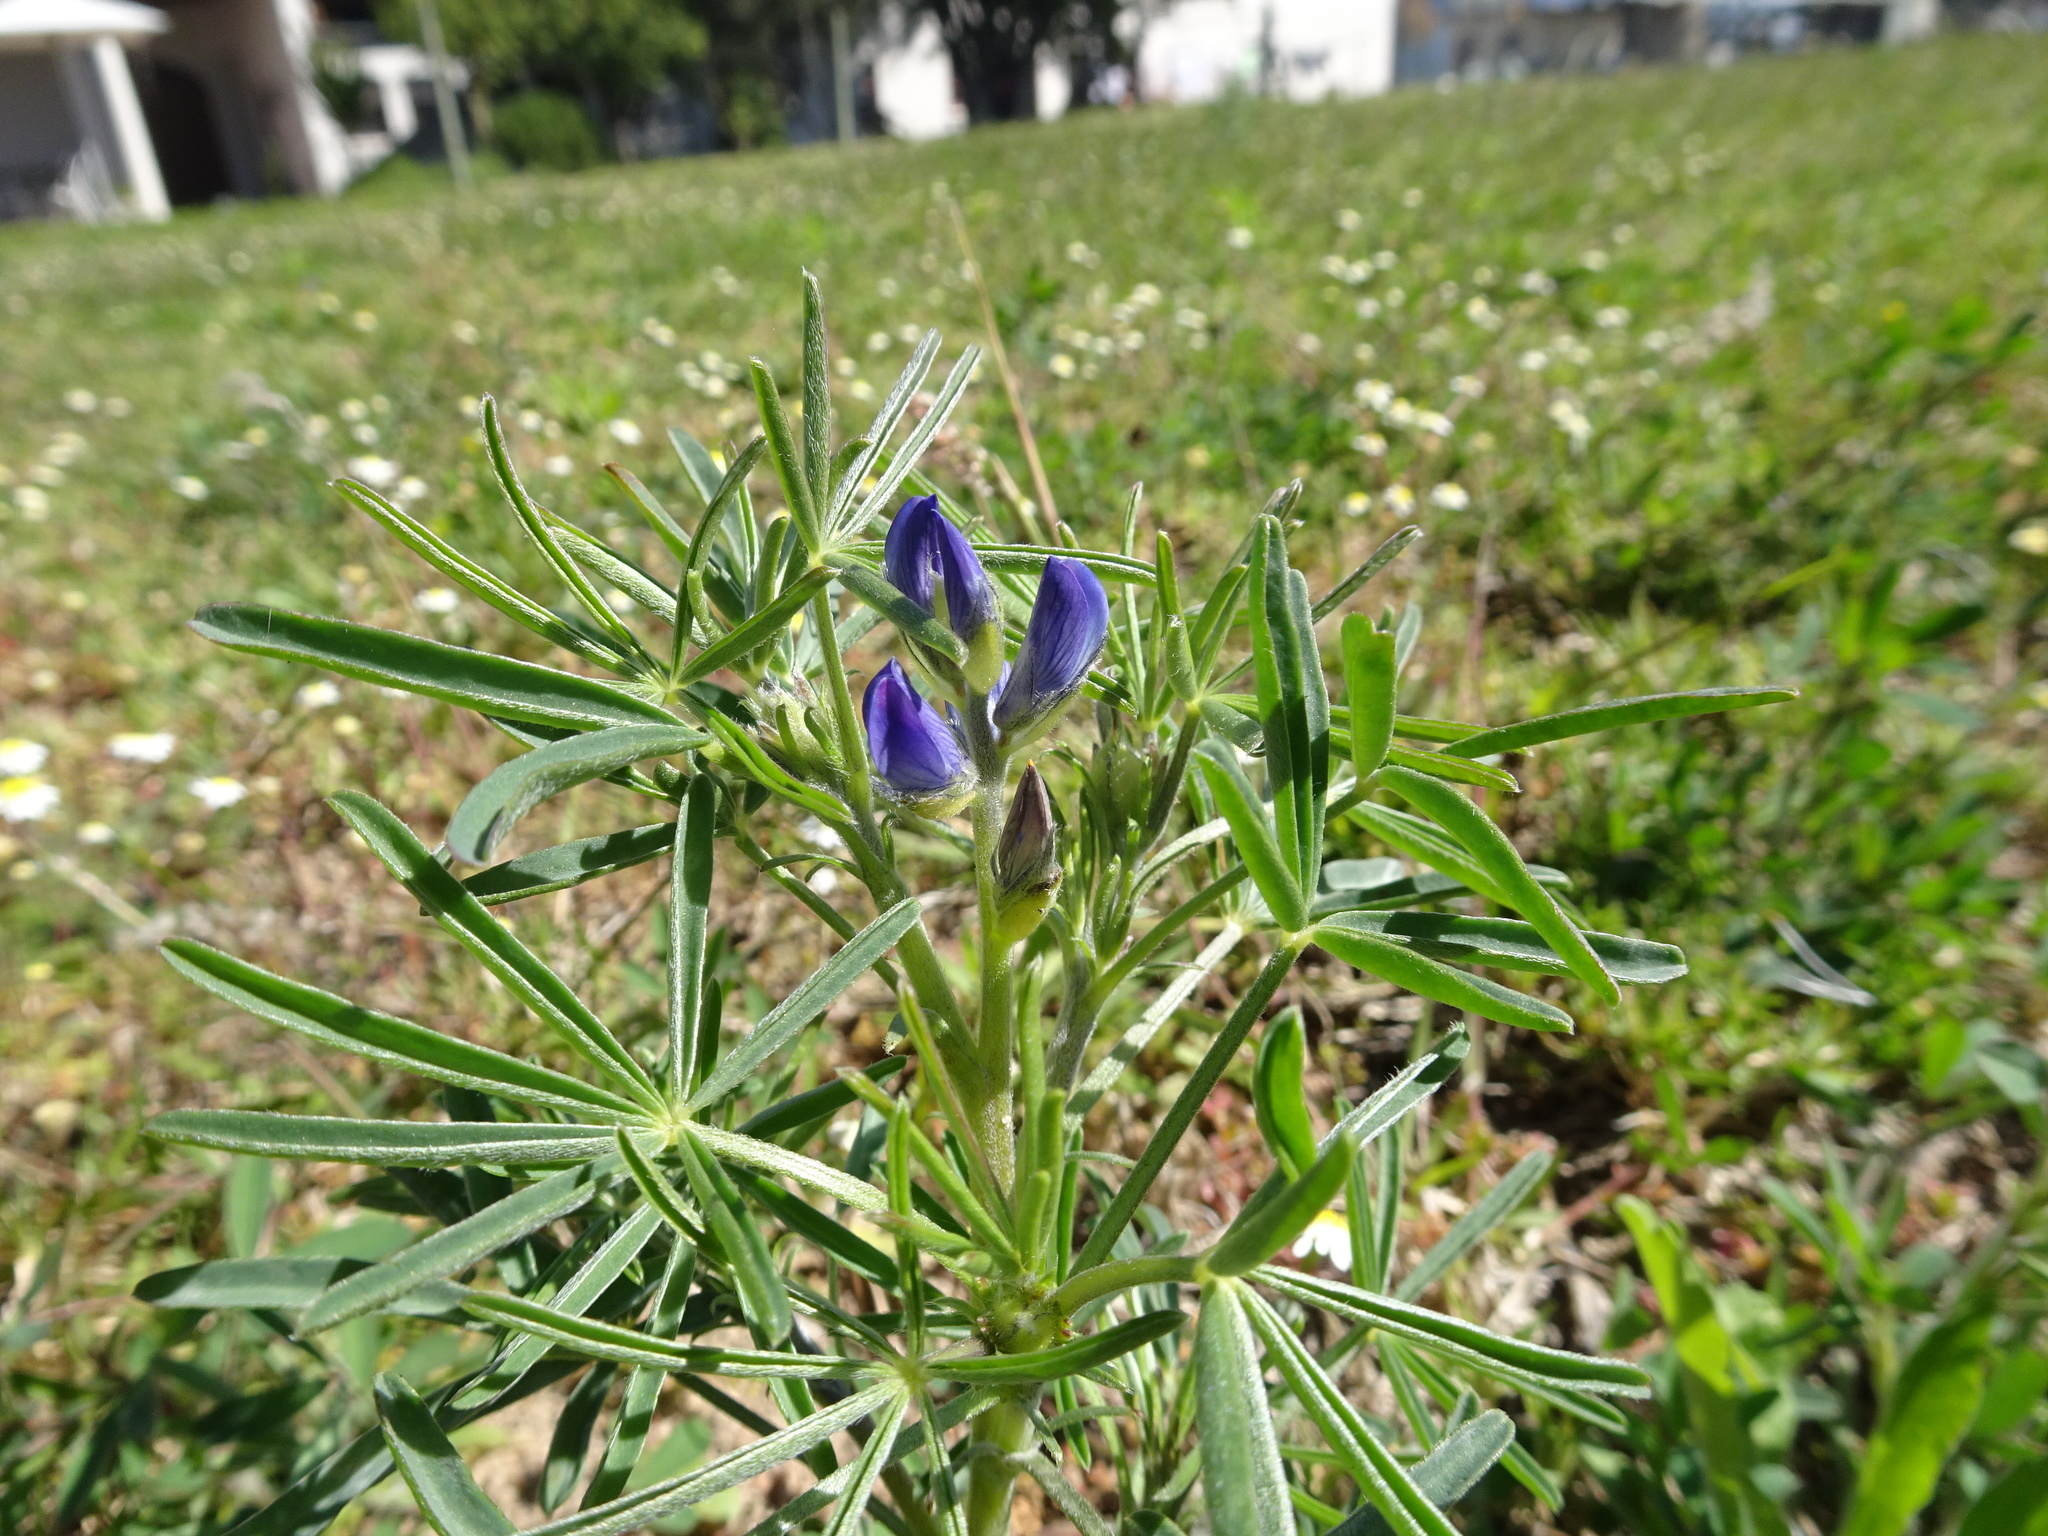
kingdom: Plantae
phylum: Tracheophyta
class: Magnoliopsida
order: Fabales
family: Fabaceae
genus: Lupinus
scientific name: Lupinus angustifolius
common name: Narrow-leaved lupin
